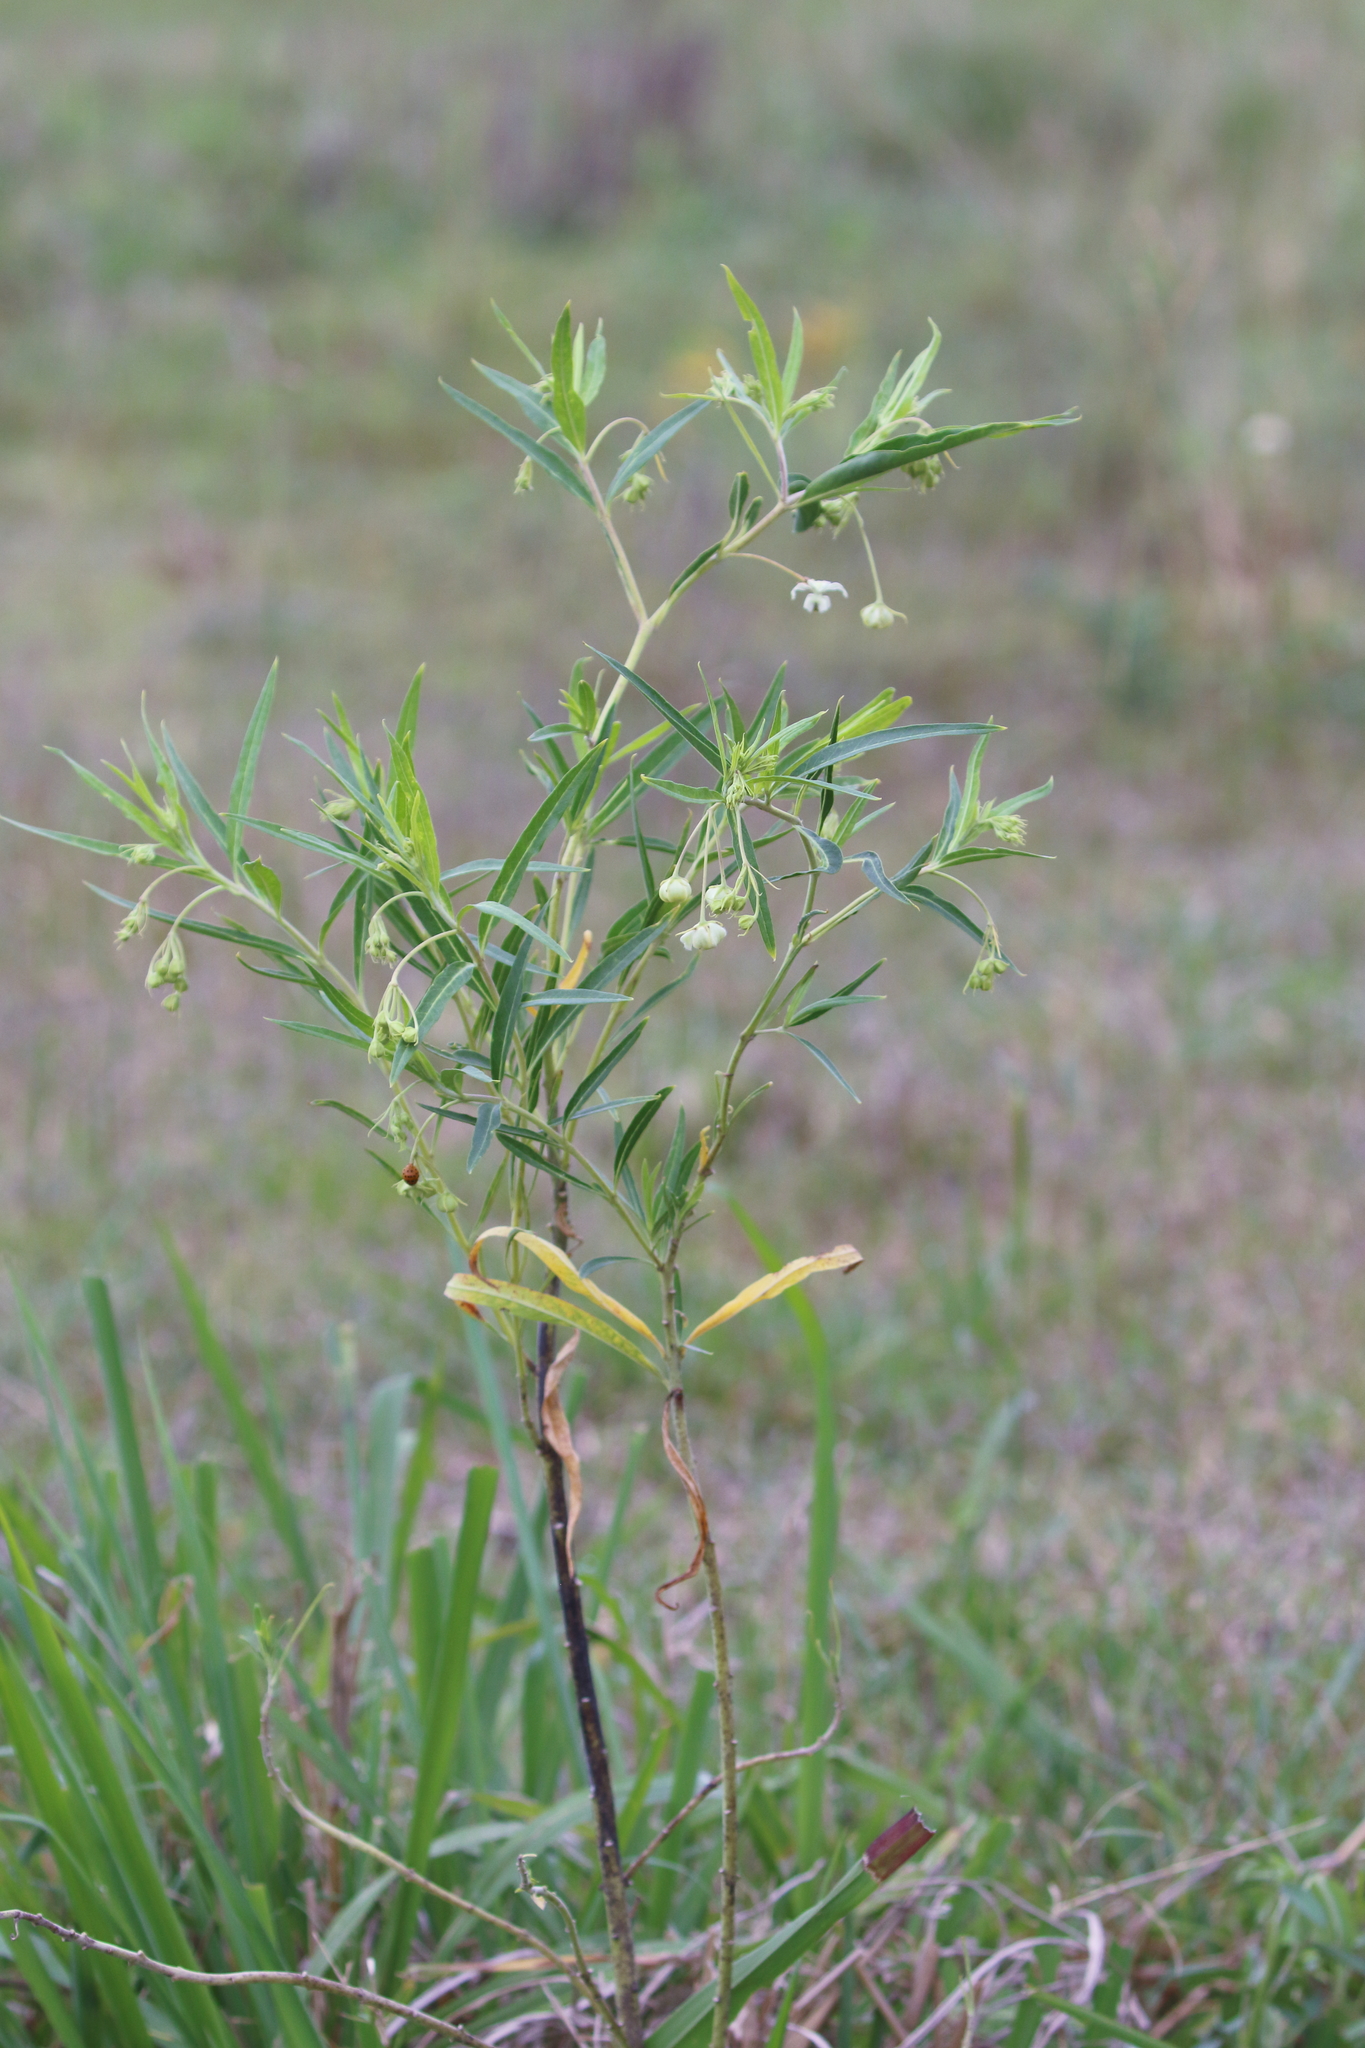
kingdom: Plantae
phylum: Tracheophyta
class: Magnoliopsida
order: Gentianales
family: Apocynaceae
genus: Gomphocarpus
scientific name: Gomphocarpus fruticosus
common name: Milkweed
